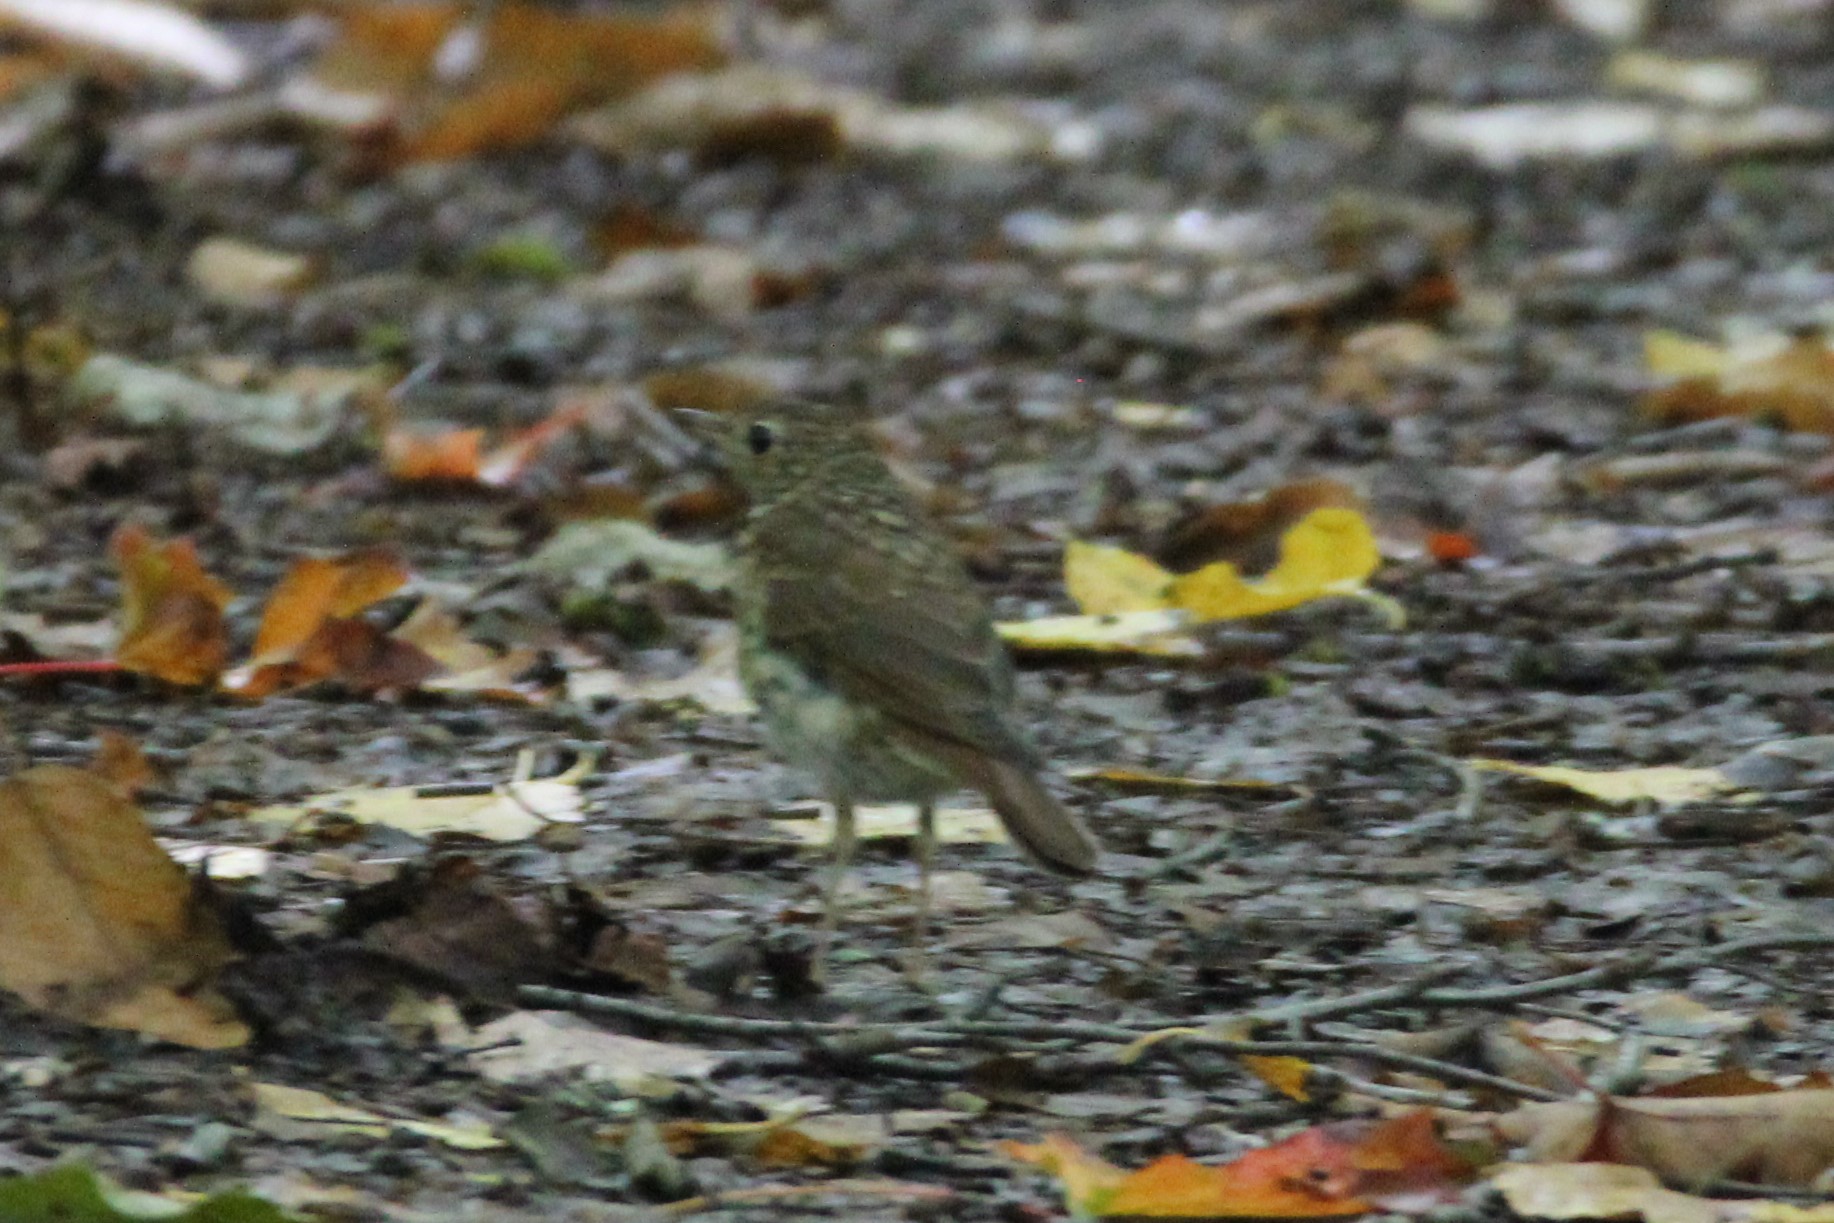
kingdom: Animalia
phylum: Chordata
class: Aves
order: Passeriformes
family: Turdidae
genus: Catharus
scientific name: Catharus guttatus
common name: Hermit thrush
